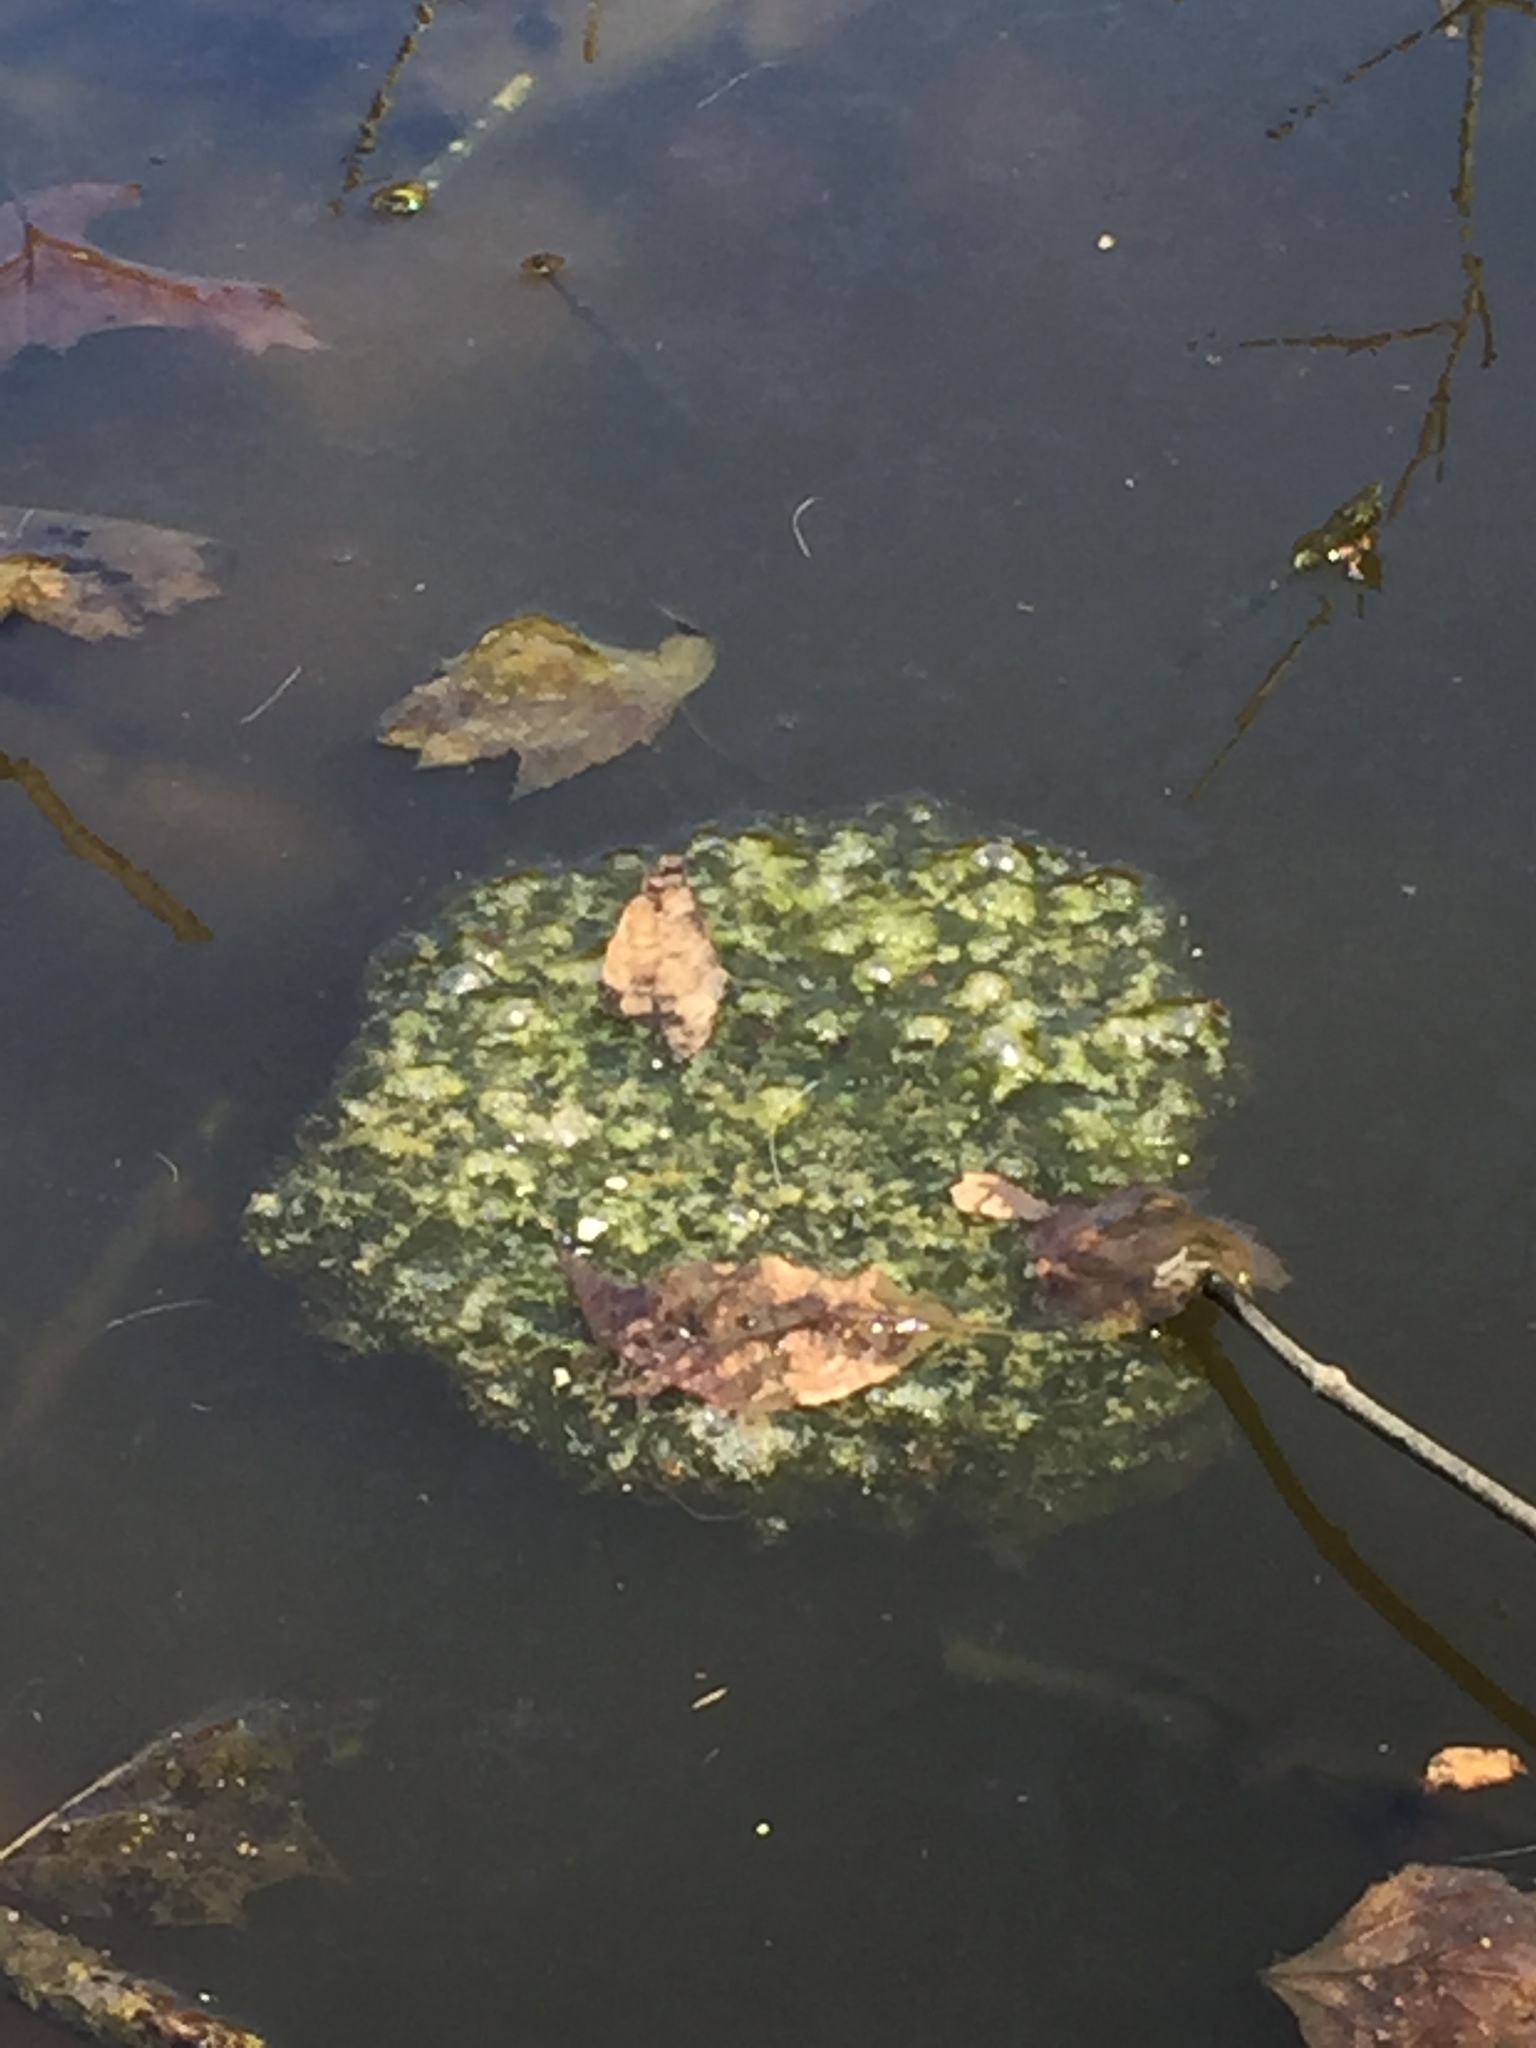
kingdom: Animalia
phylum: Chordata
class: Amphibia
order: Anura
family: Ranidae
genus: Lithobates
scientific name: Lithobates sylvaticus
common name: Wood frog
